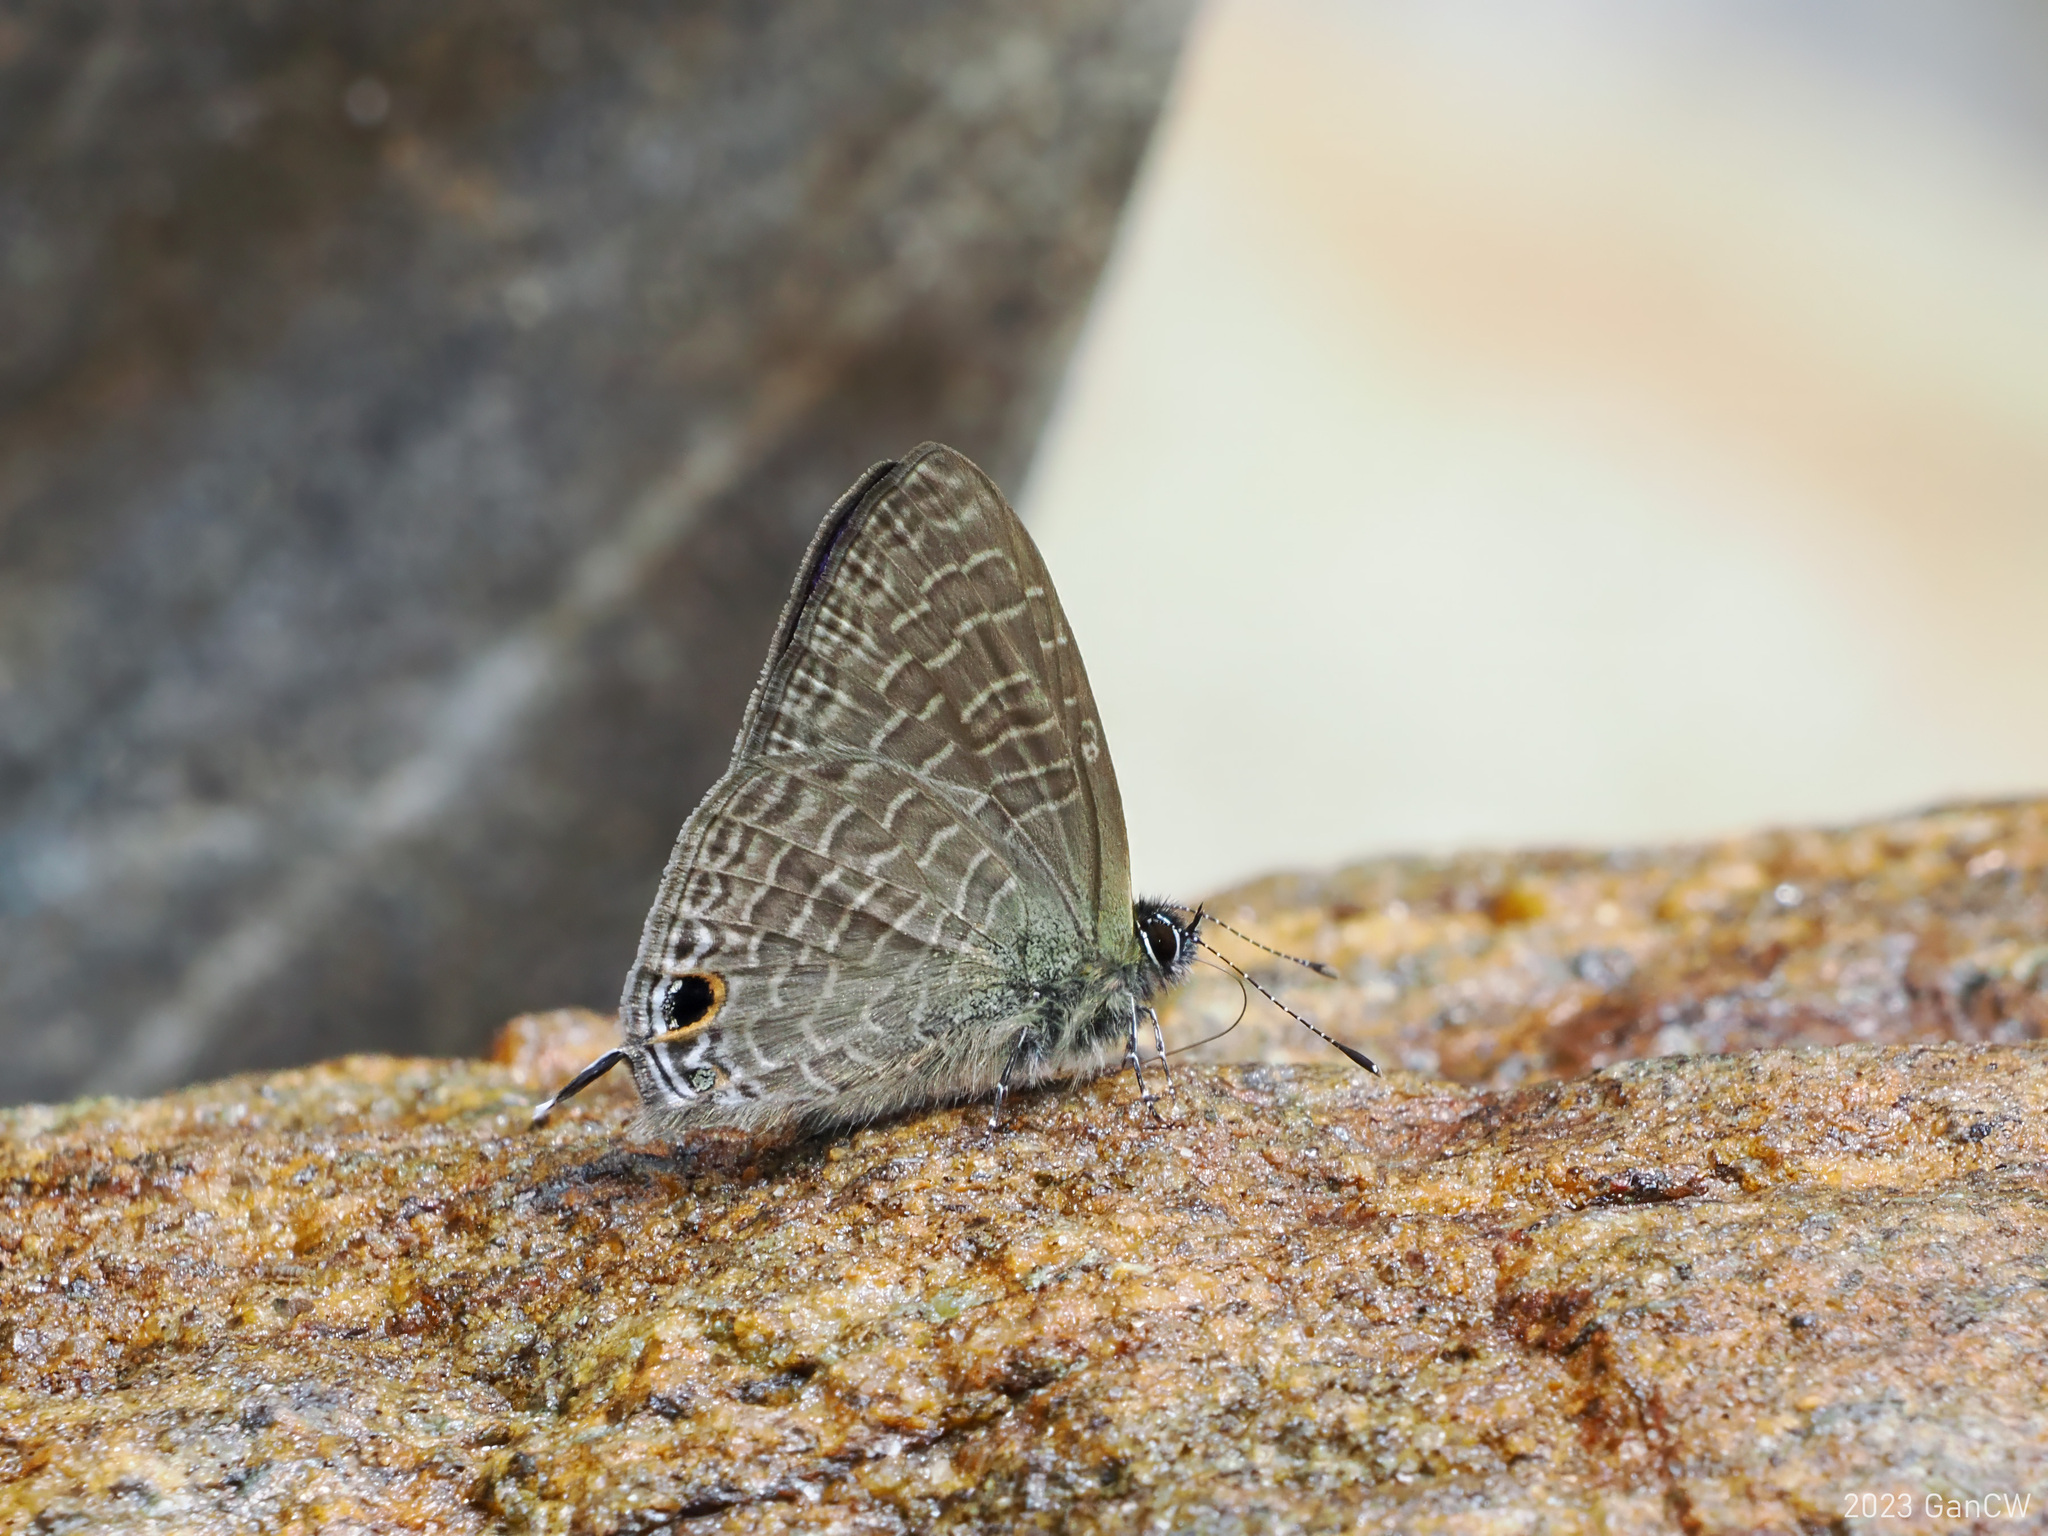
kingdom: Animalia
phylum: Arthropoda
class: Insecta
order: Lepidoptera
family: Lycaenidae
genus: Ionolyce
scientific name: Ionolyce helicon
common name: Pointed line blue
